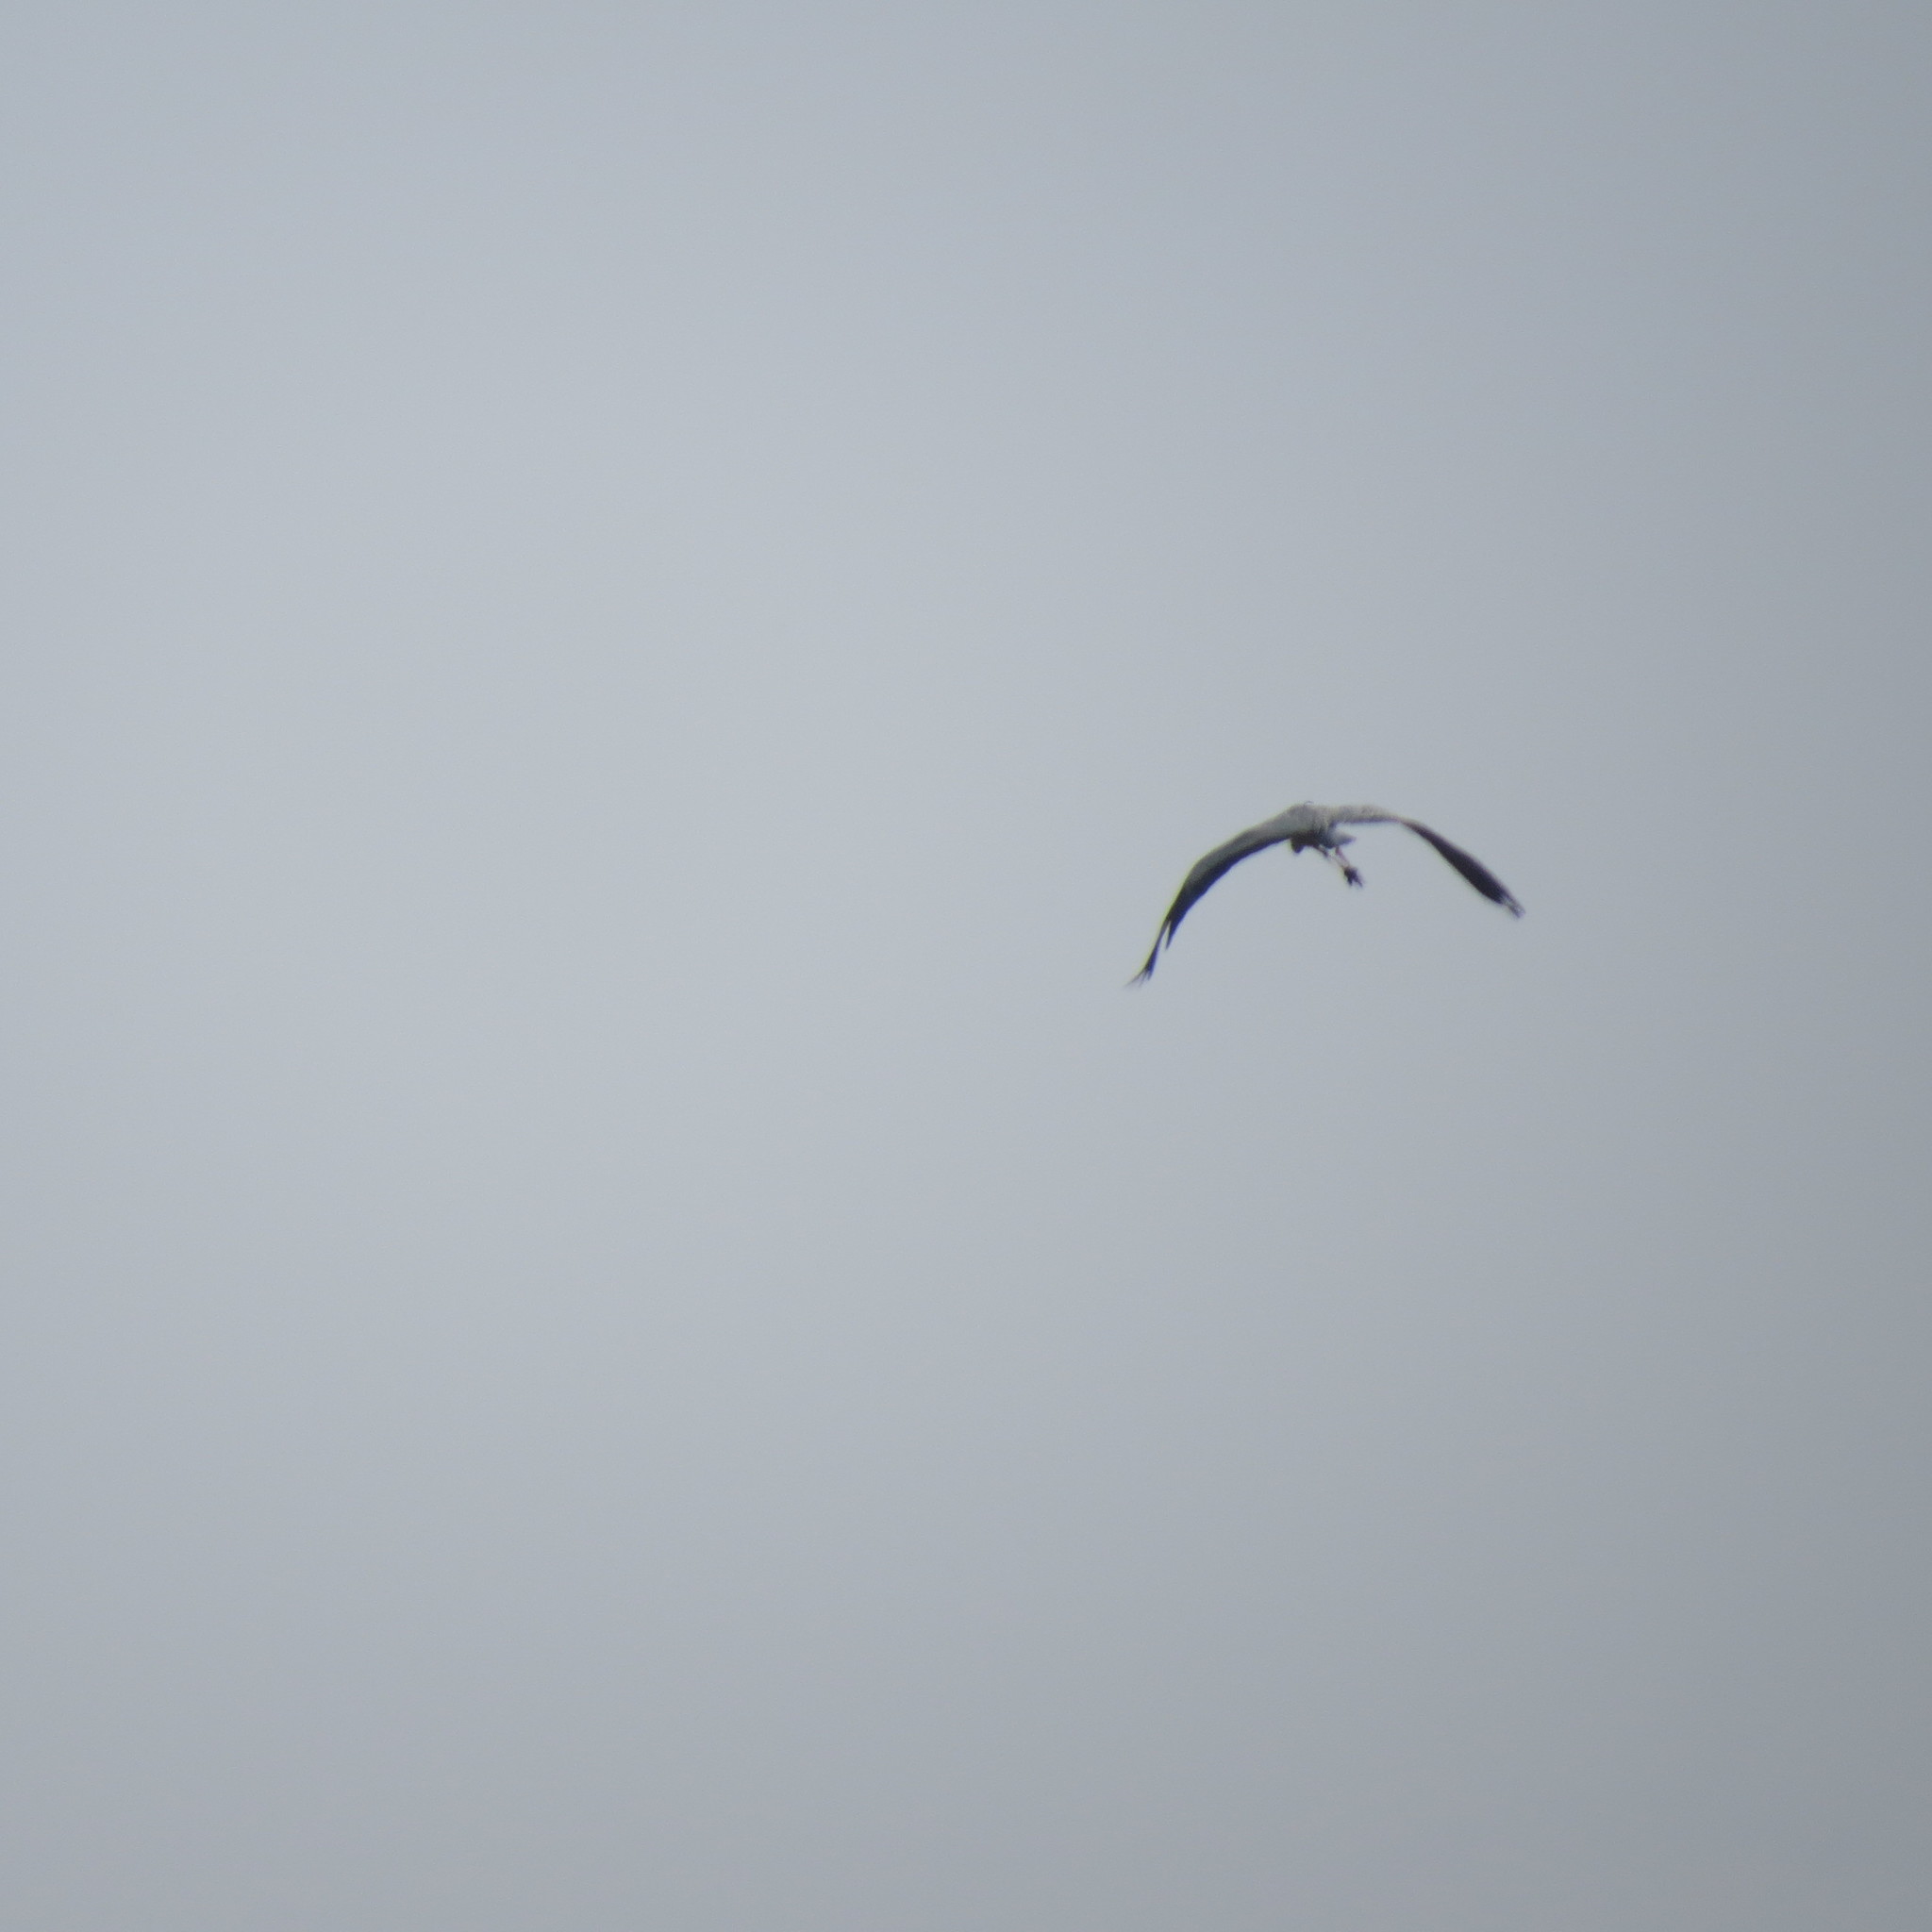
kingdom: Animalia
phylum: Chordata
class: Aves
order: Pelecaniformes
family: Ardeidae
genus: Ardea
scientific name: Ardea cinerea
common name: Grey heron
